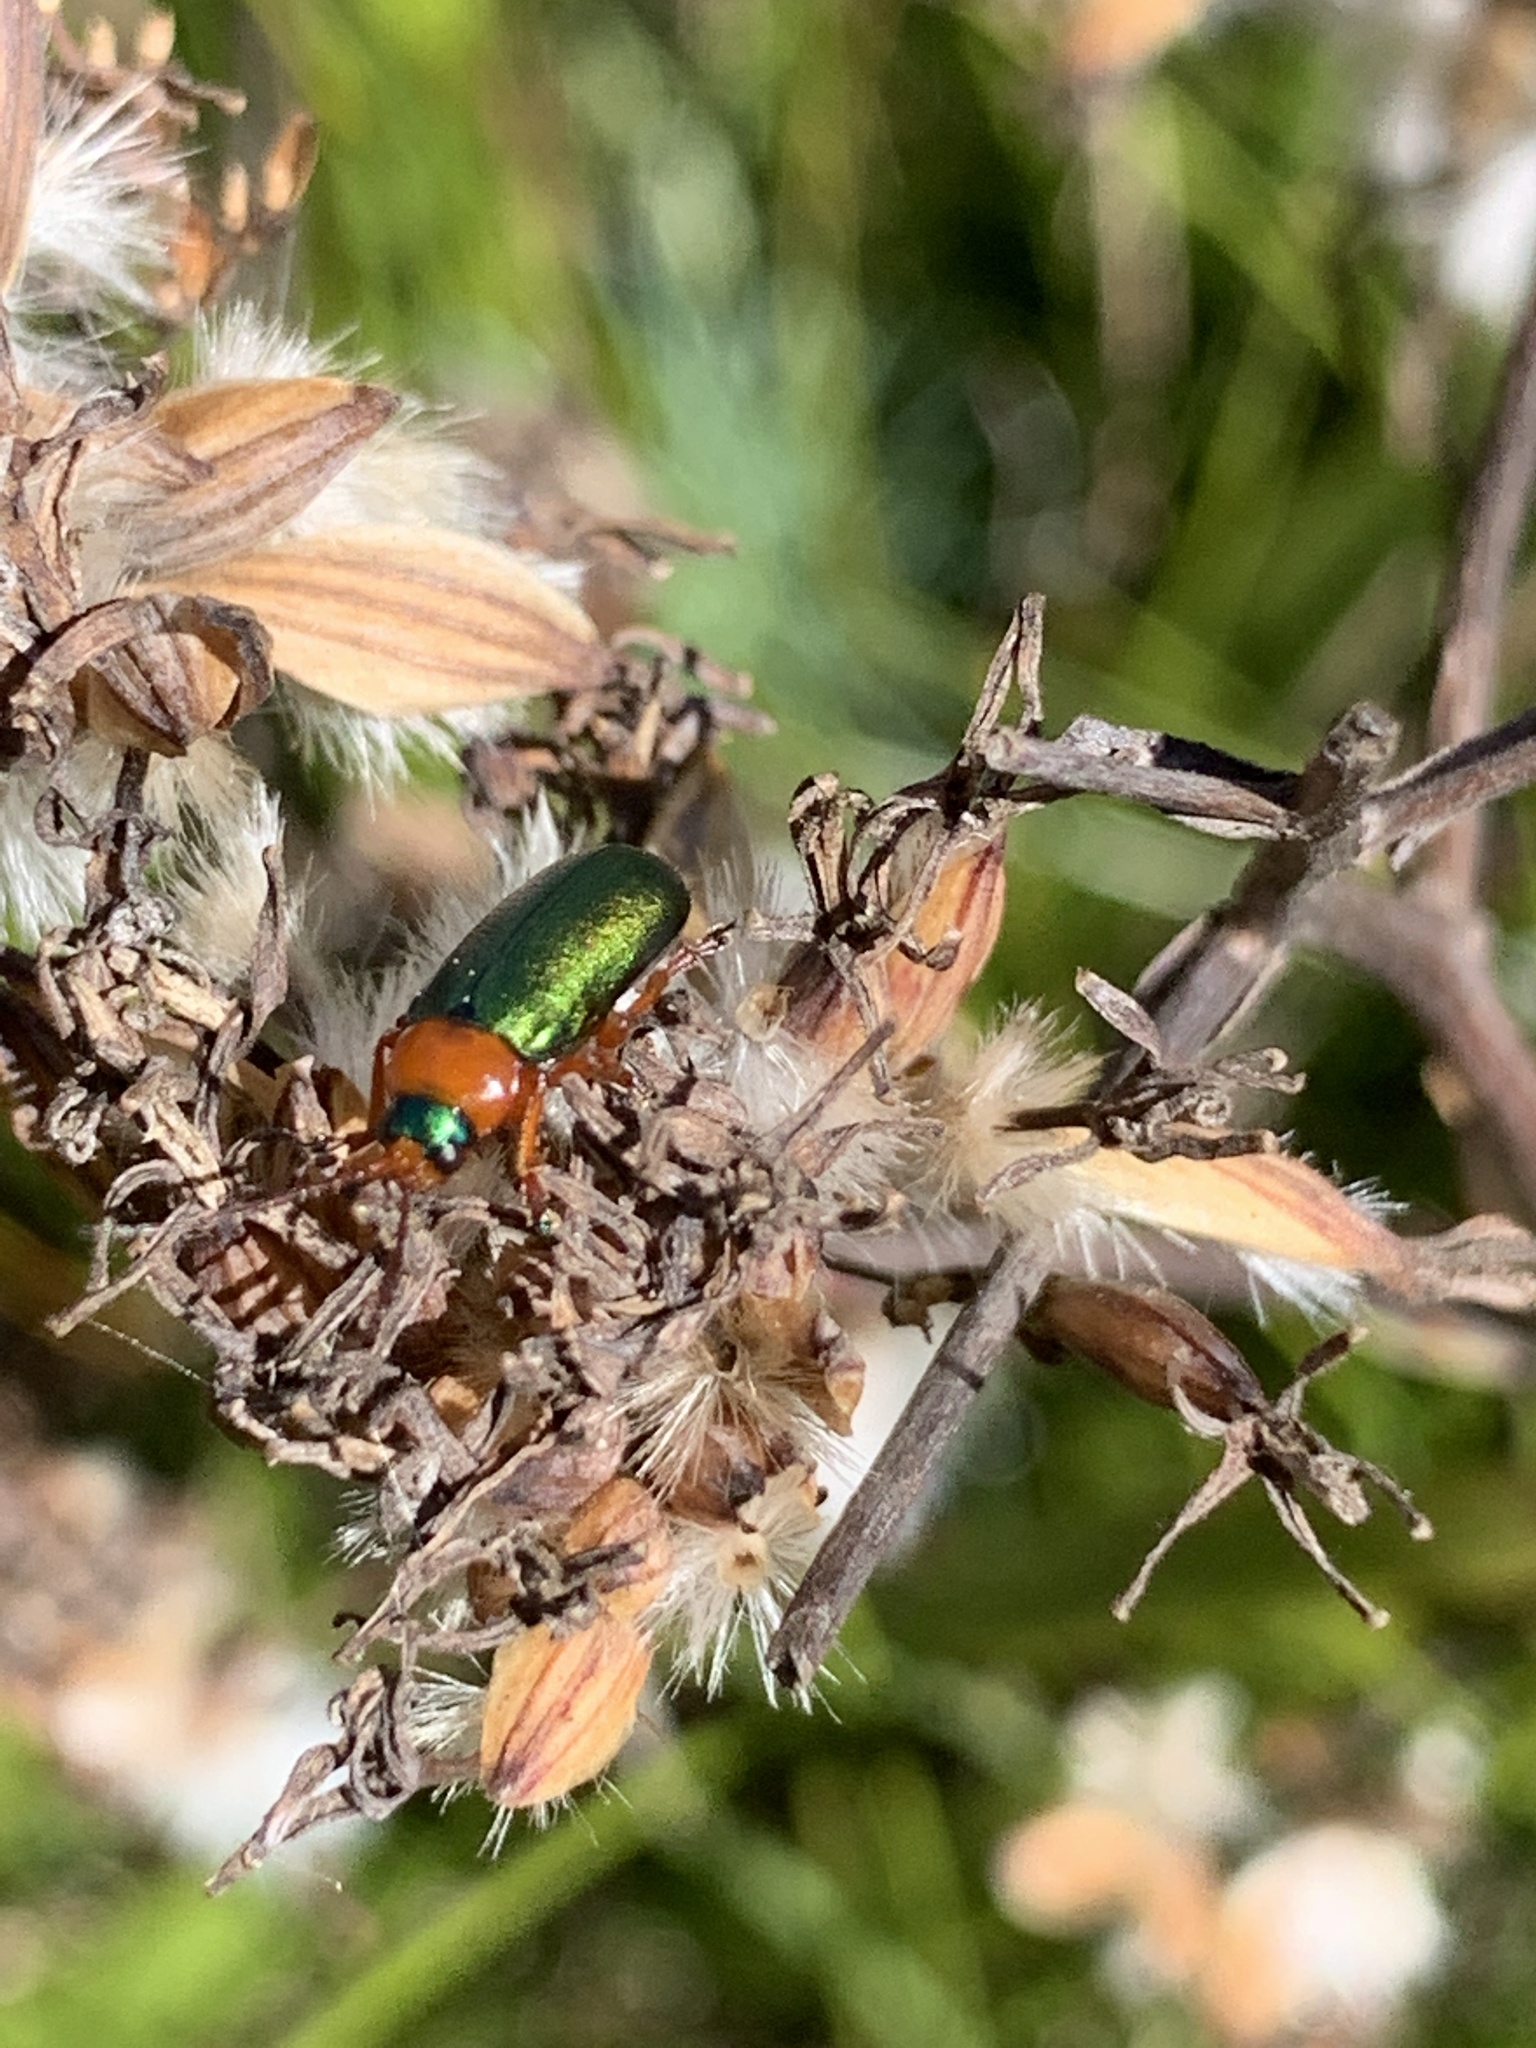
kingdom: Animalia
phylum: Arthropoda
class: Insecta
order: Coleoptera
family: Chrysomelidae
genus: Palaeophylia
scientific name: Palaeophylia
